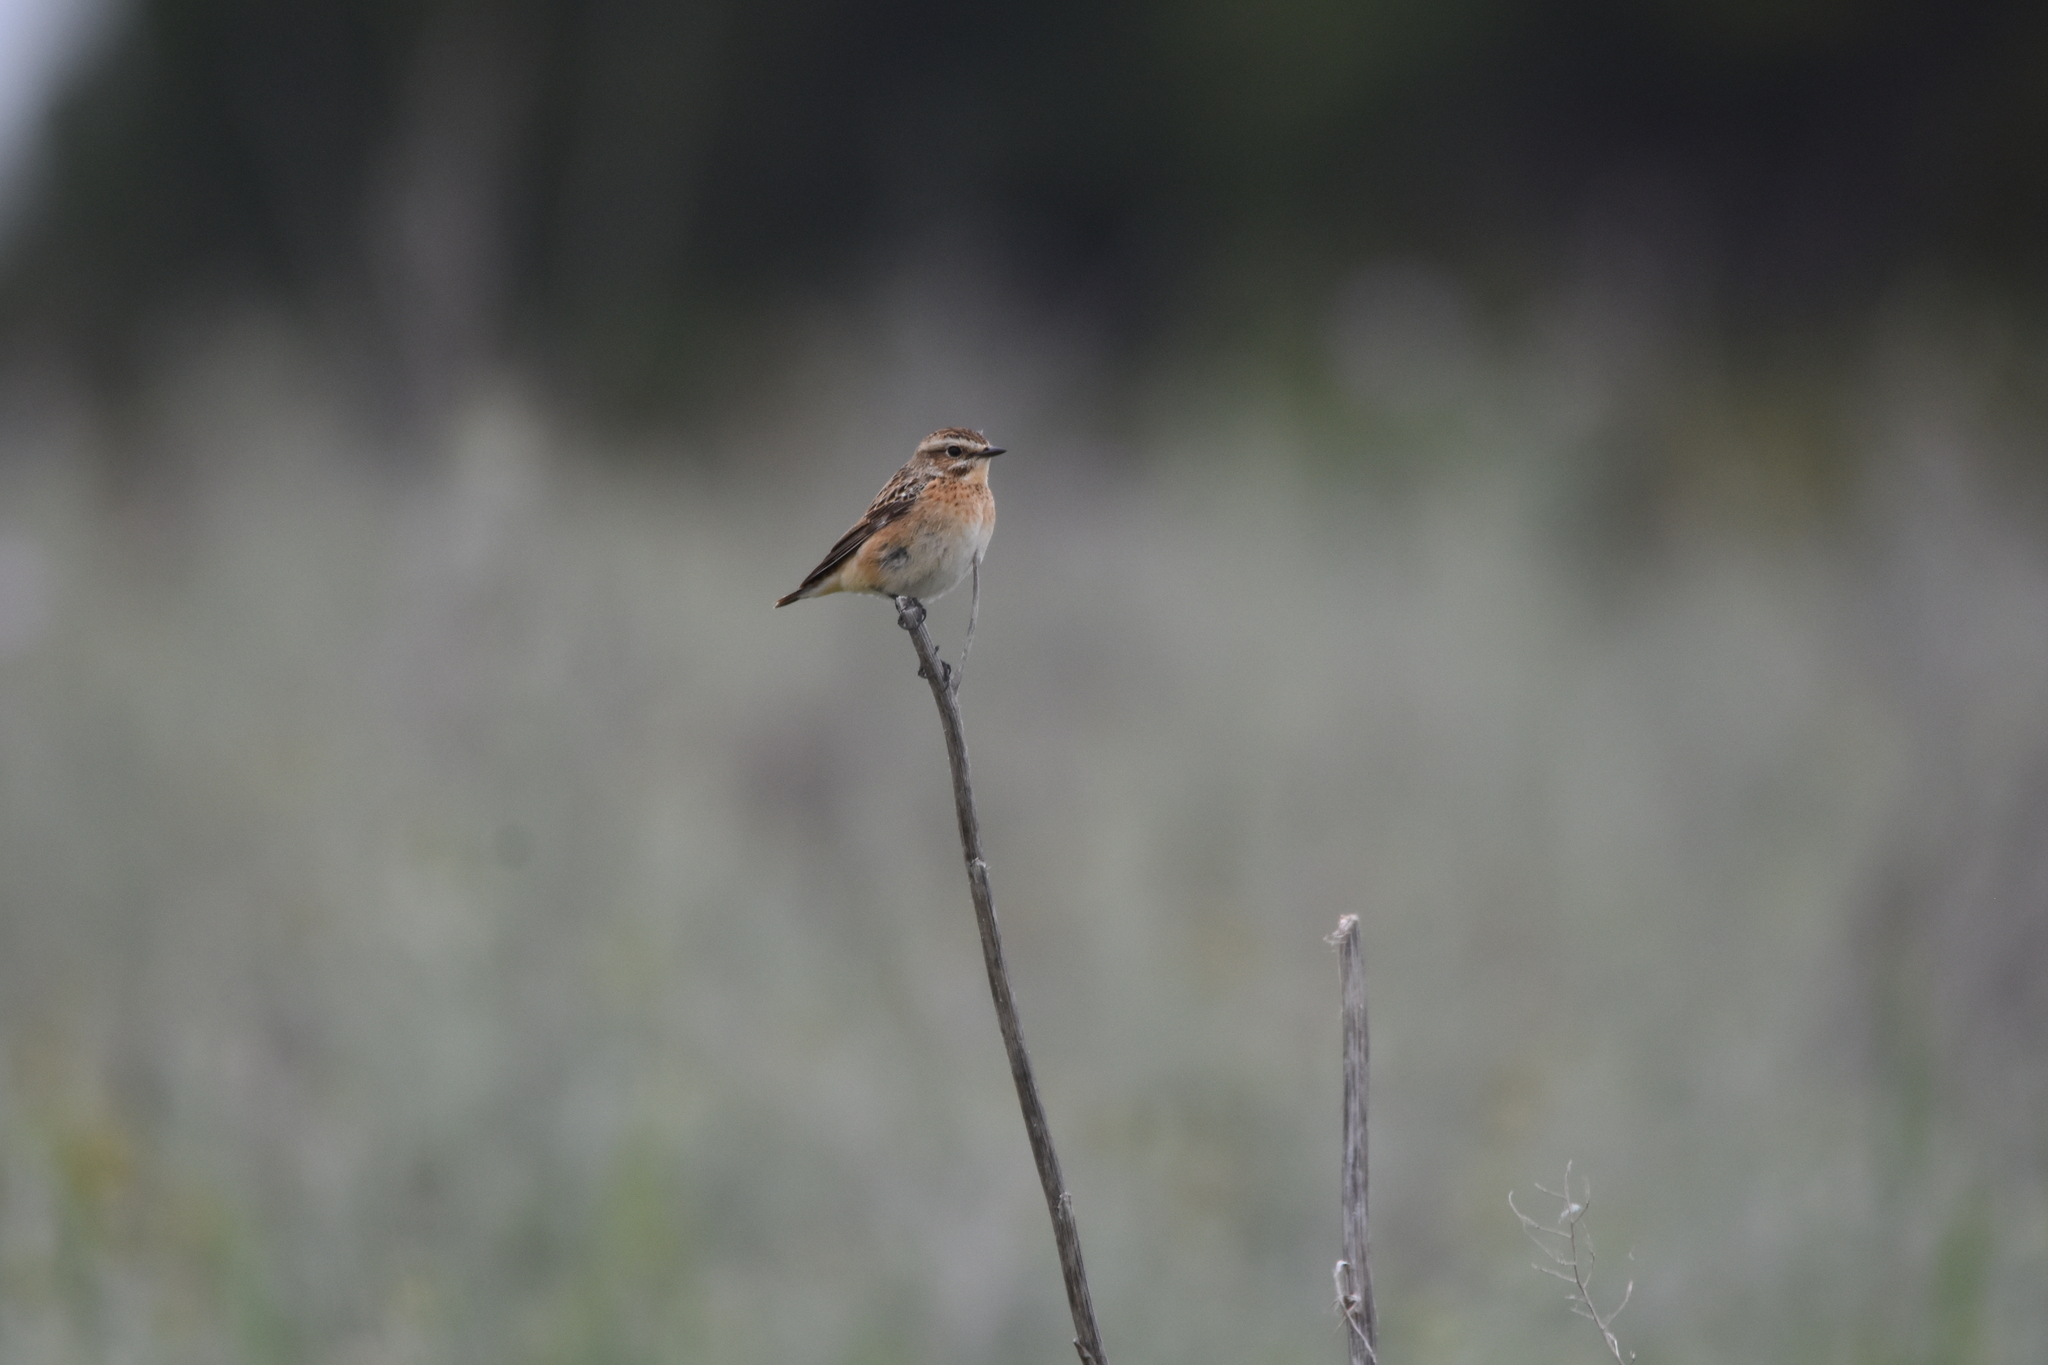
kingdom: Animalia
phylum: Chordata
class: Aves
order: Passeriformes
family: Muscicapidae
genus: Saxicola
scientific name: Saxicola rubetra
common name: Whinchat
